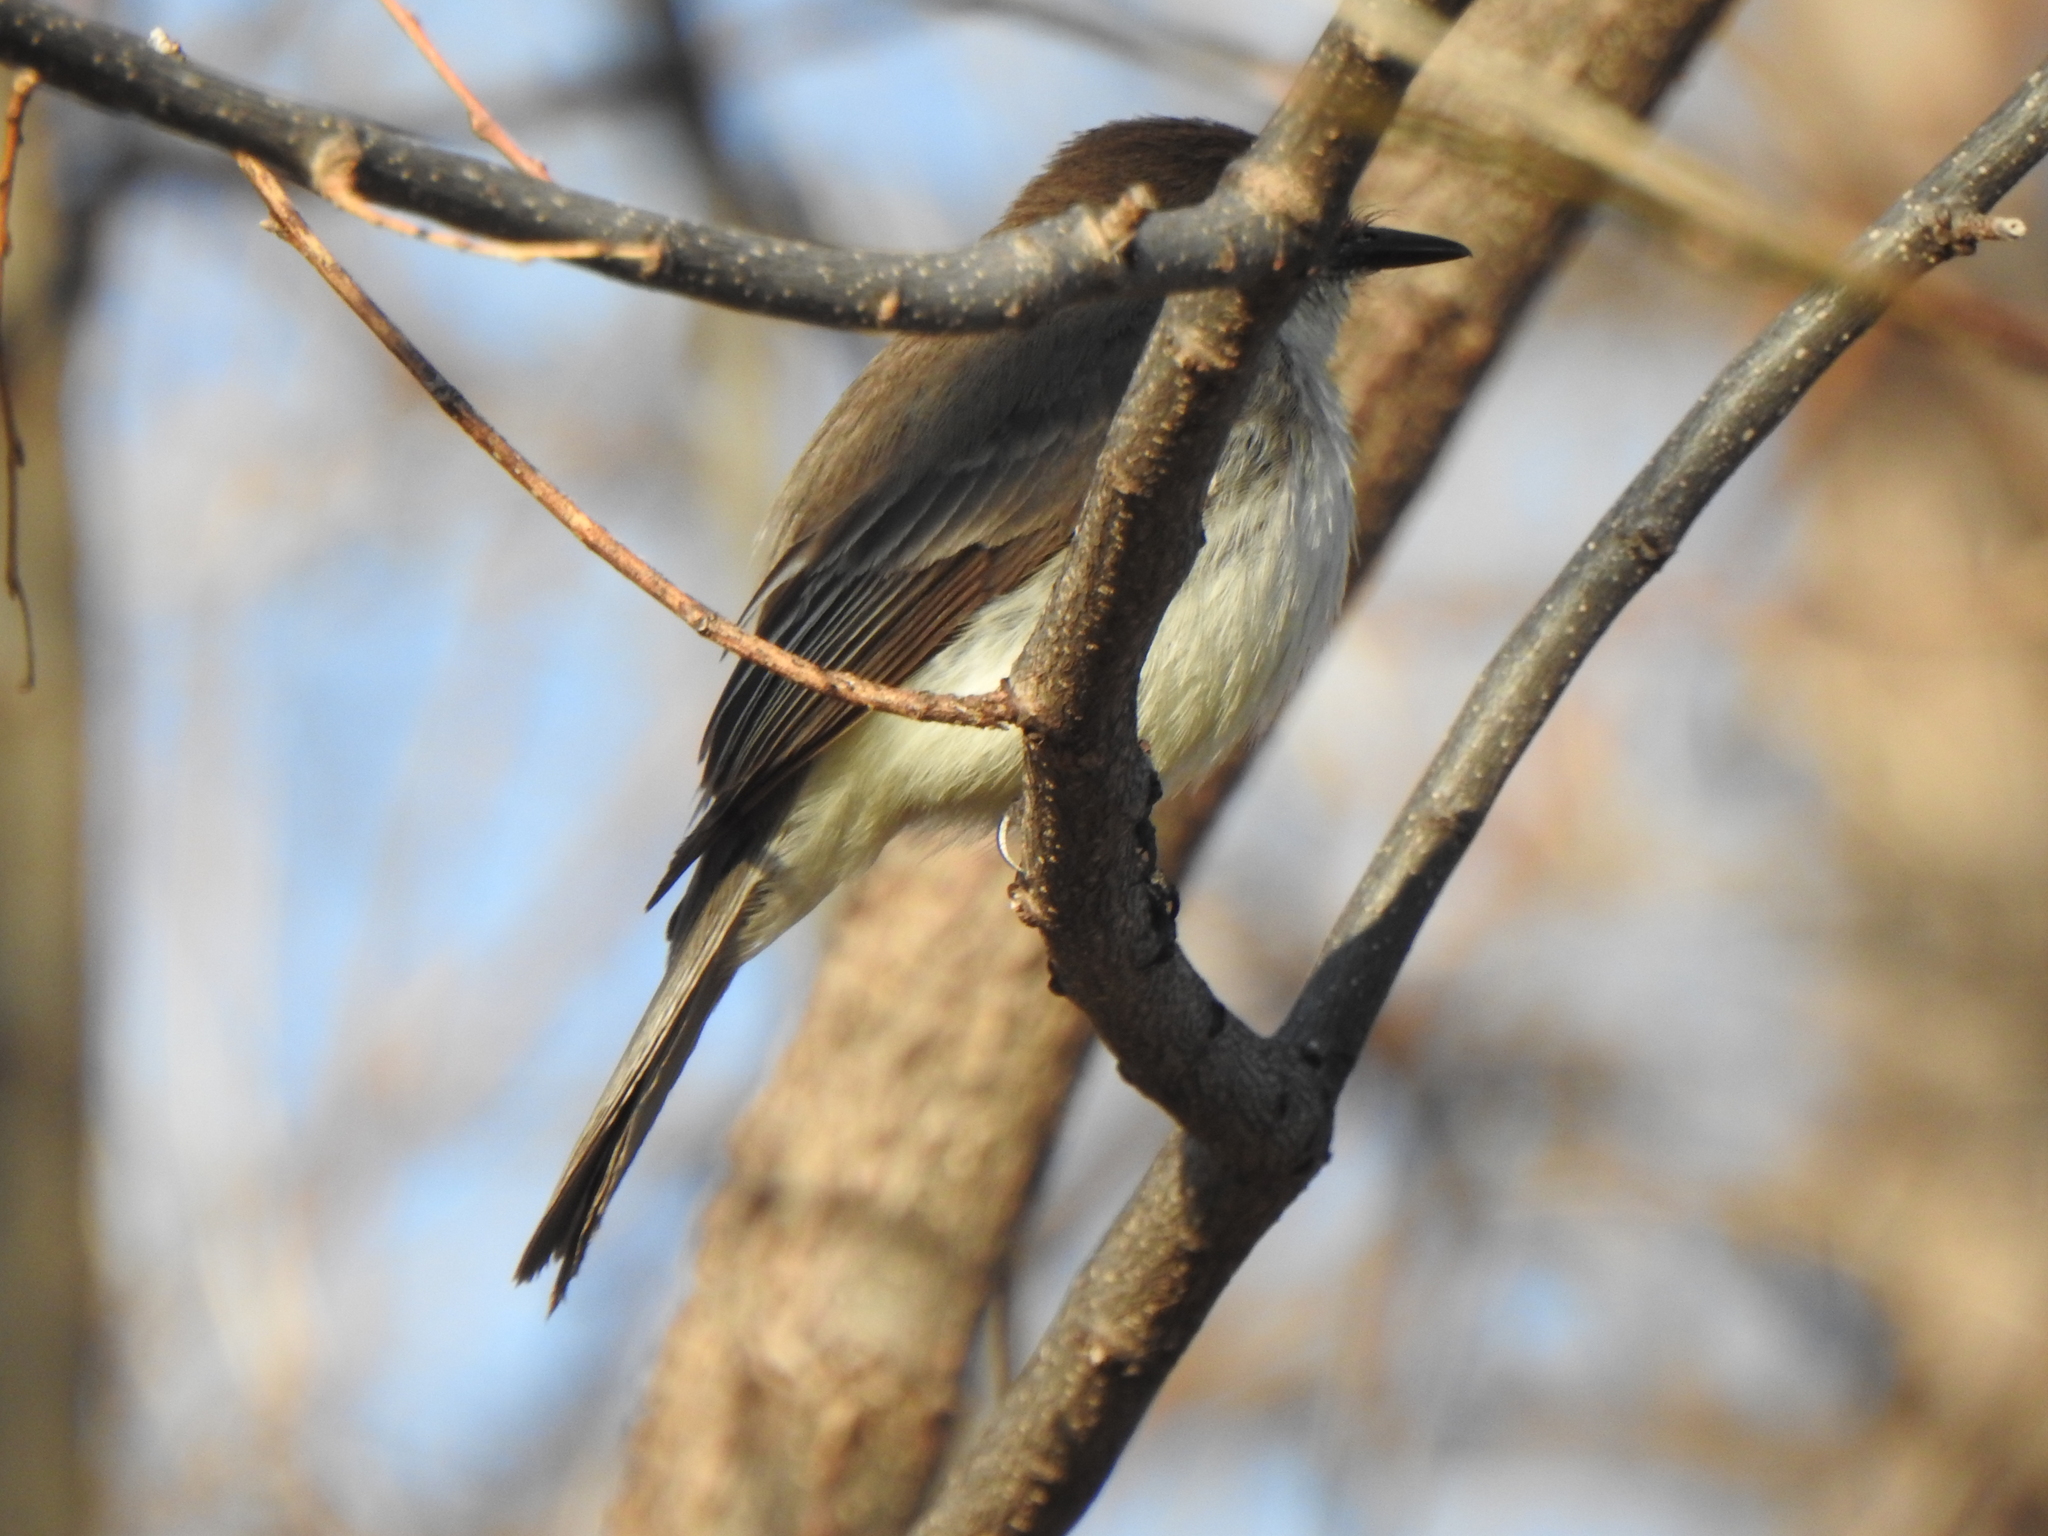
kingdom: Animalia
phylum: Chordata
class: Aves
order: Passeriformes
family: Tyrannidae
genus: Sayornis
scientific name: Sayornis phoebe
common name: Eastern phoebe
